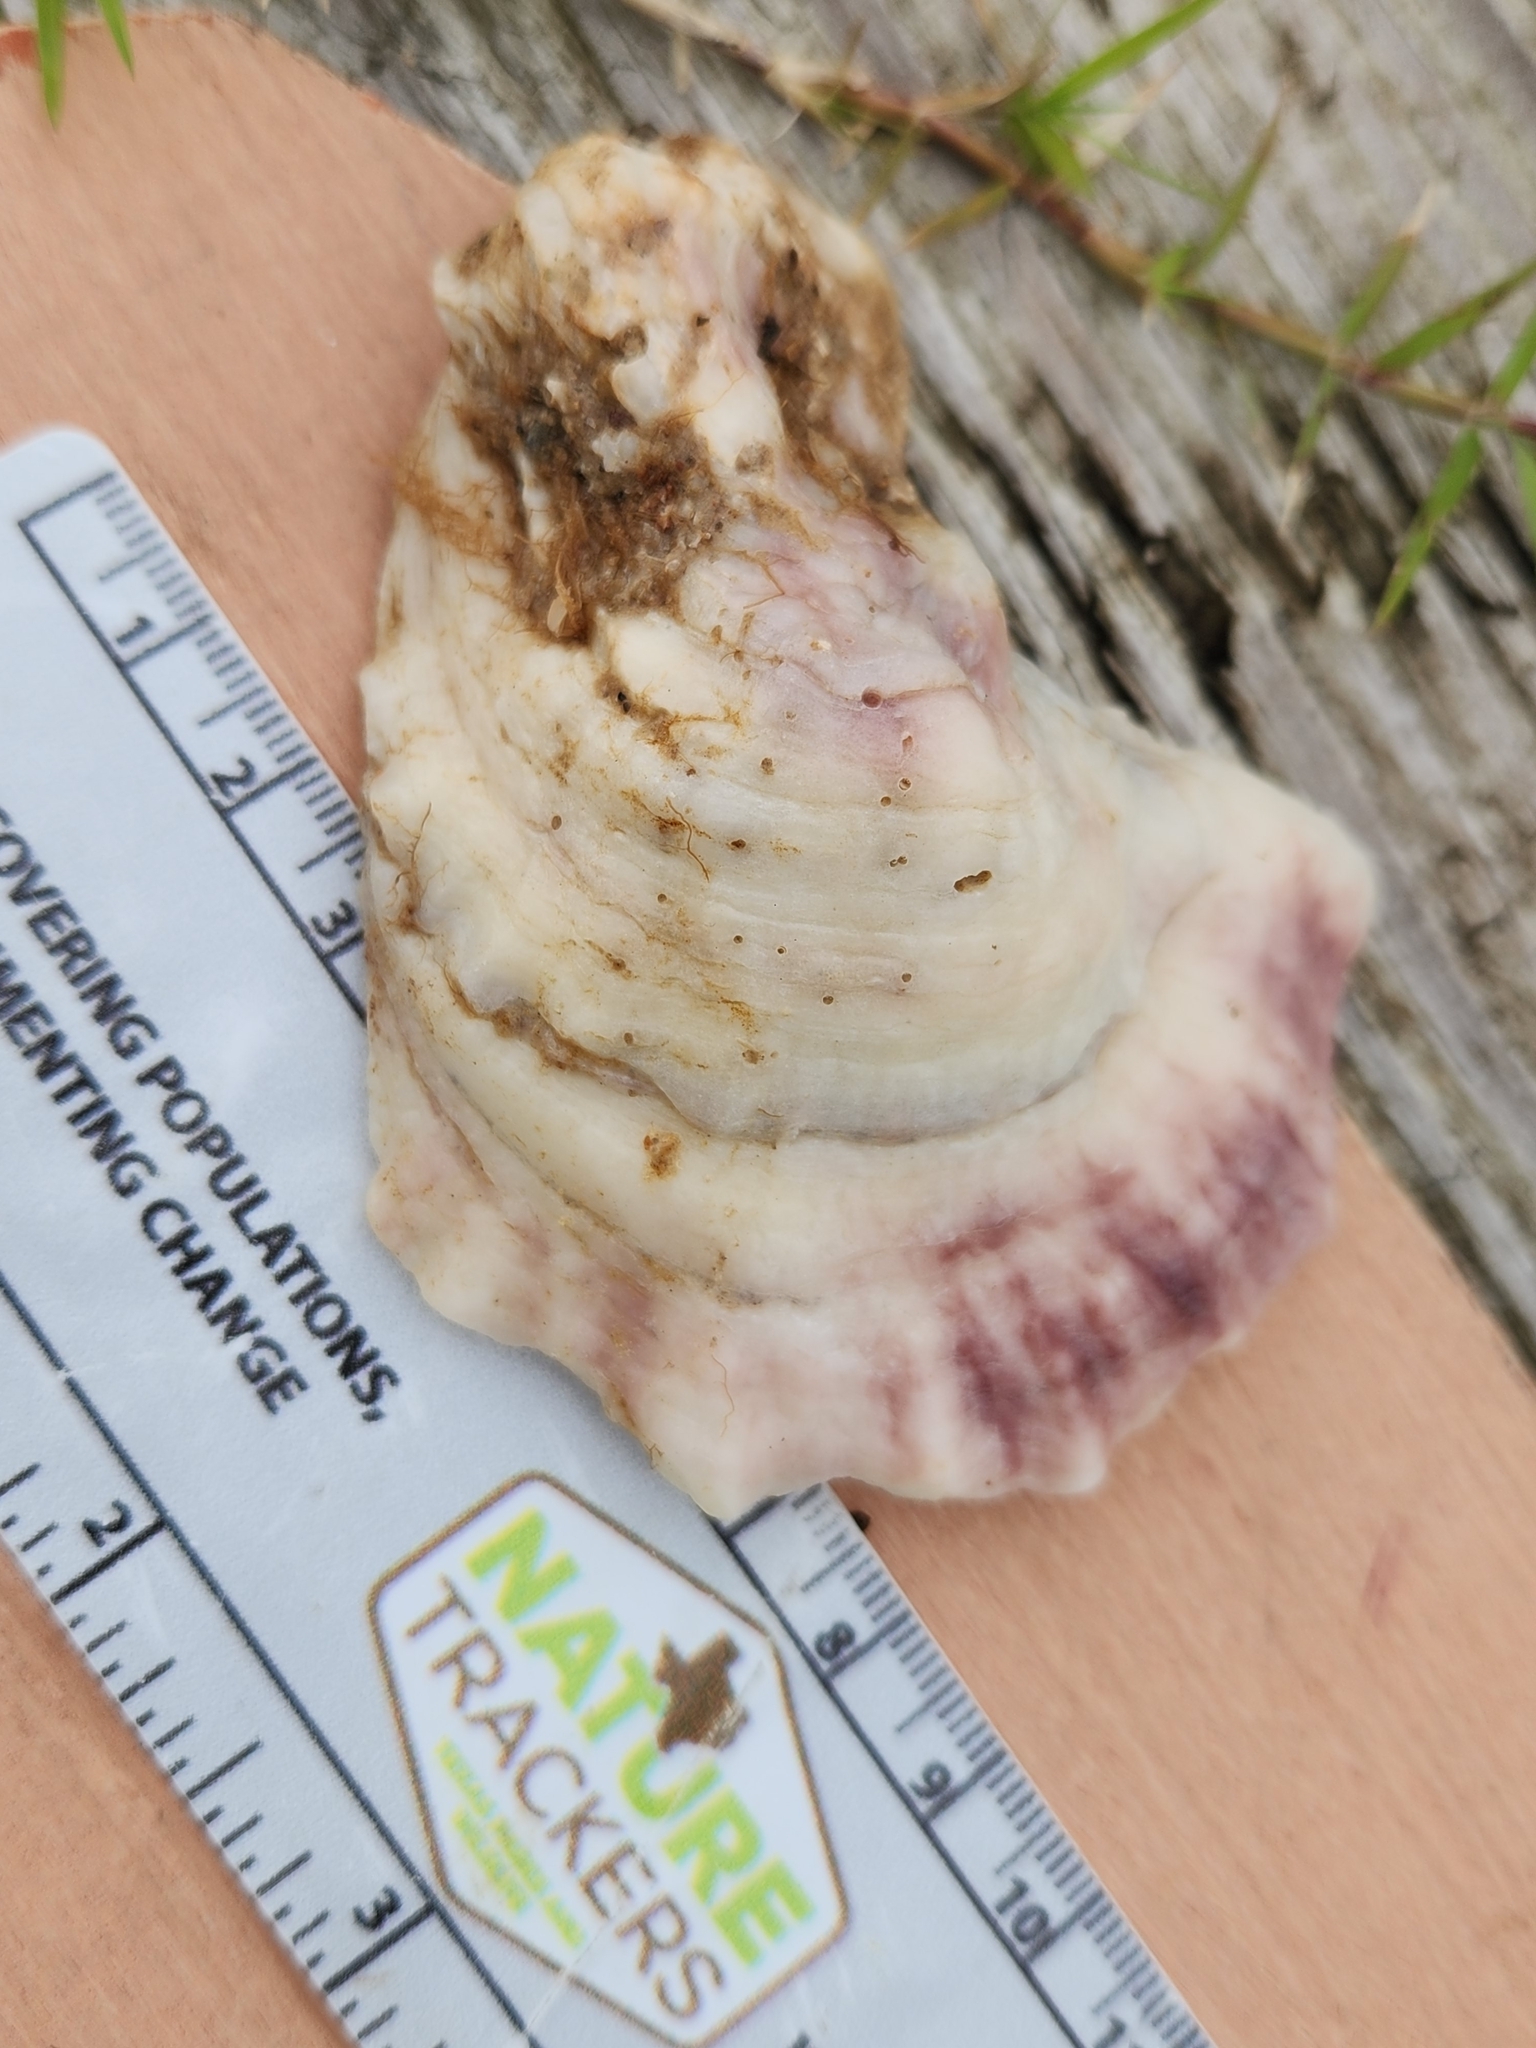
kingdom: Animalia
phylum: Mollusca
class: Bivalvia
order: Ostreida
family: Ostreidae
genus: Crassostrea
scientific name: Crassostrea virginica
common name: American oyster
